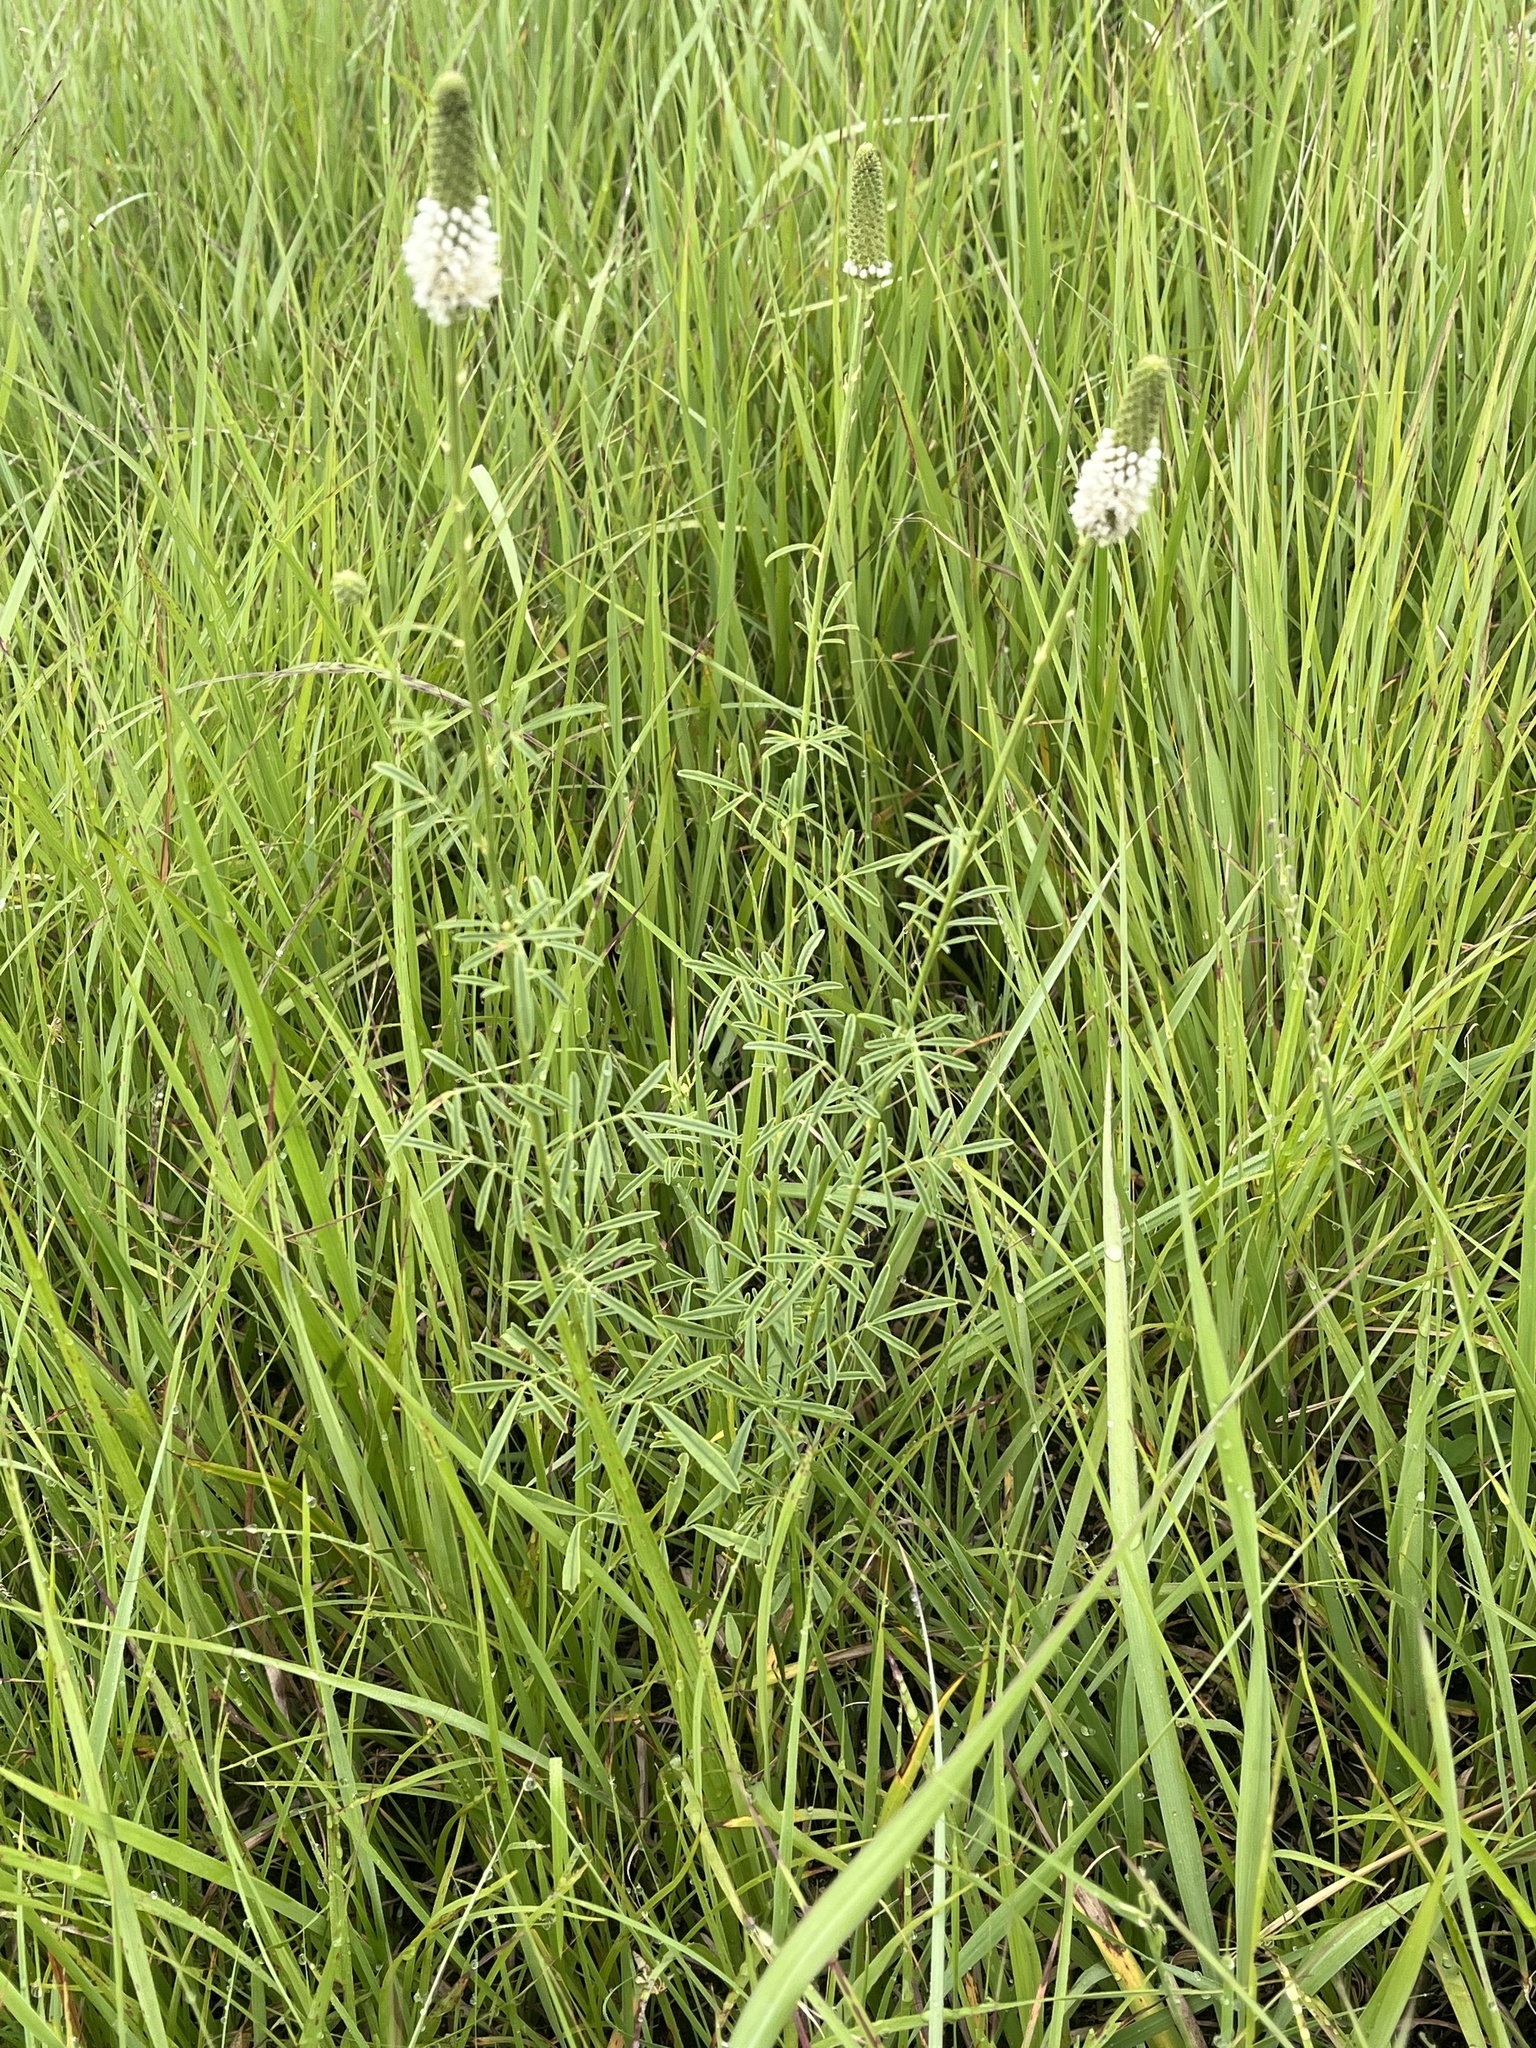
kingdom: Plantae
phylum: Tracheophyta
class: Magnoliopsida
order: Fabales
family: Fabaceae
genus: Dalea
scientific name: Dalea candida
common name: White prairie-clover
